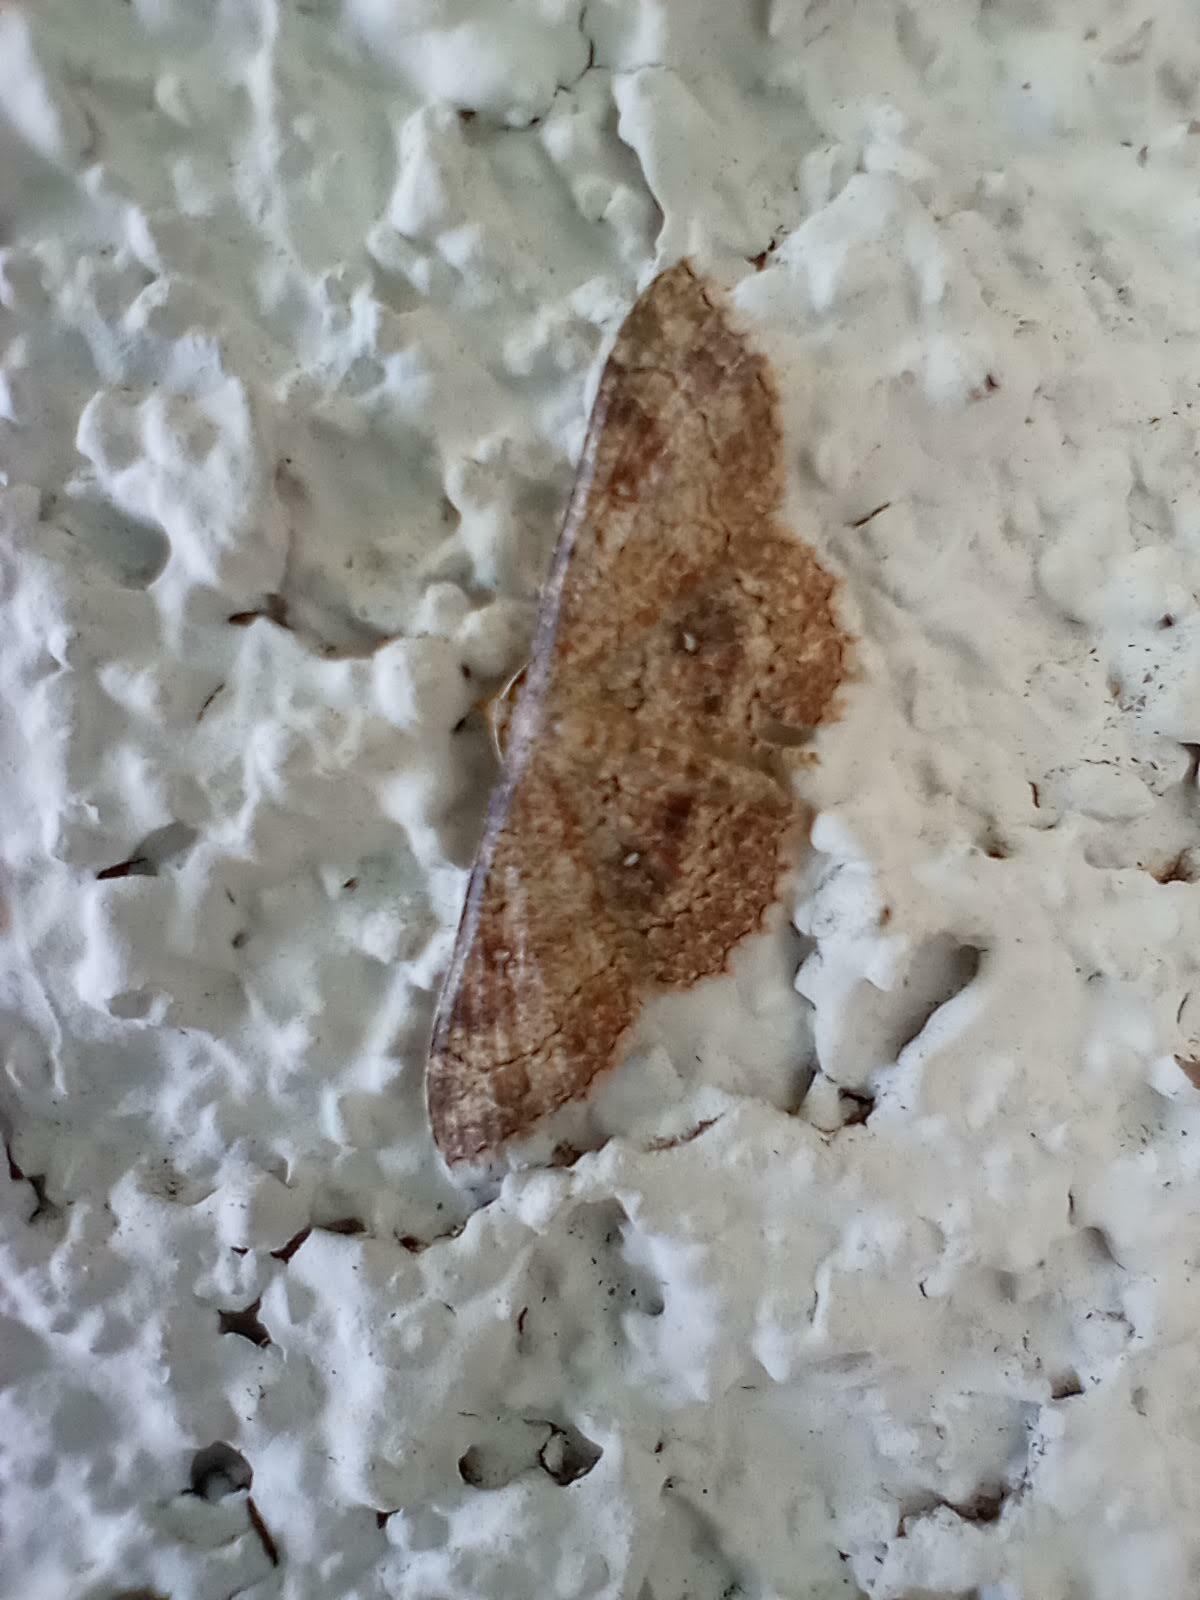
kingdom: Animalia
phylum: Arthropoda
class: Insecta
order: Lepidoptera
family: Geometridae
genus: Cyclophora
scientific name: Cyclophora nanaria
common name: Cankerworm
